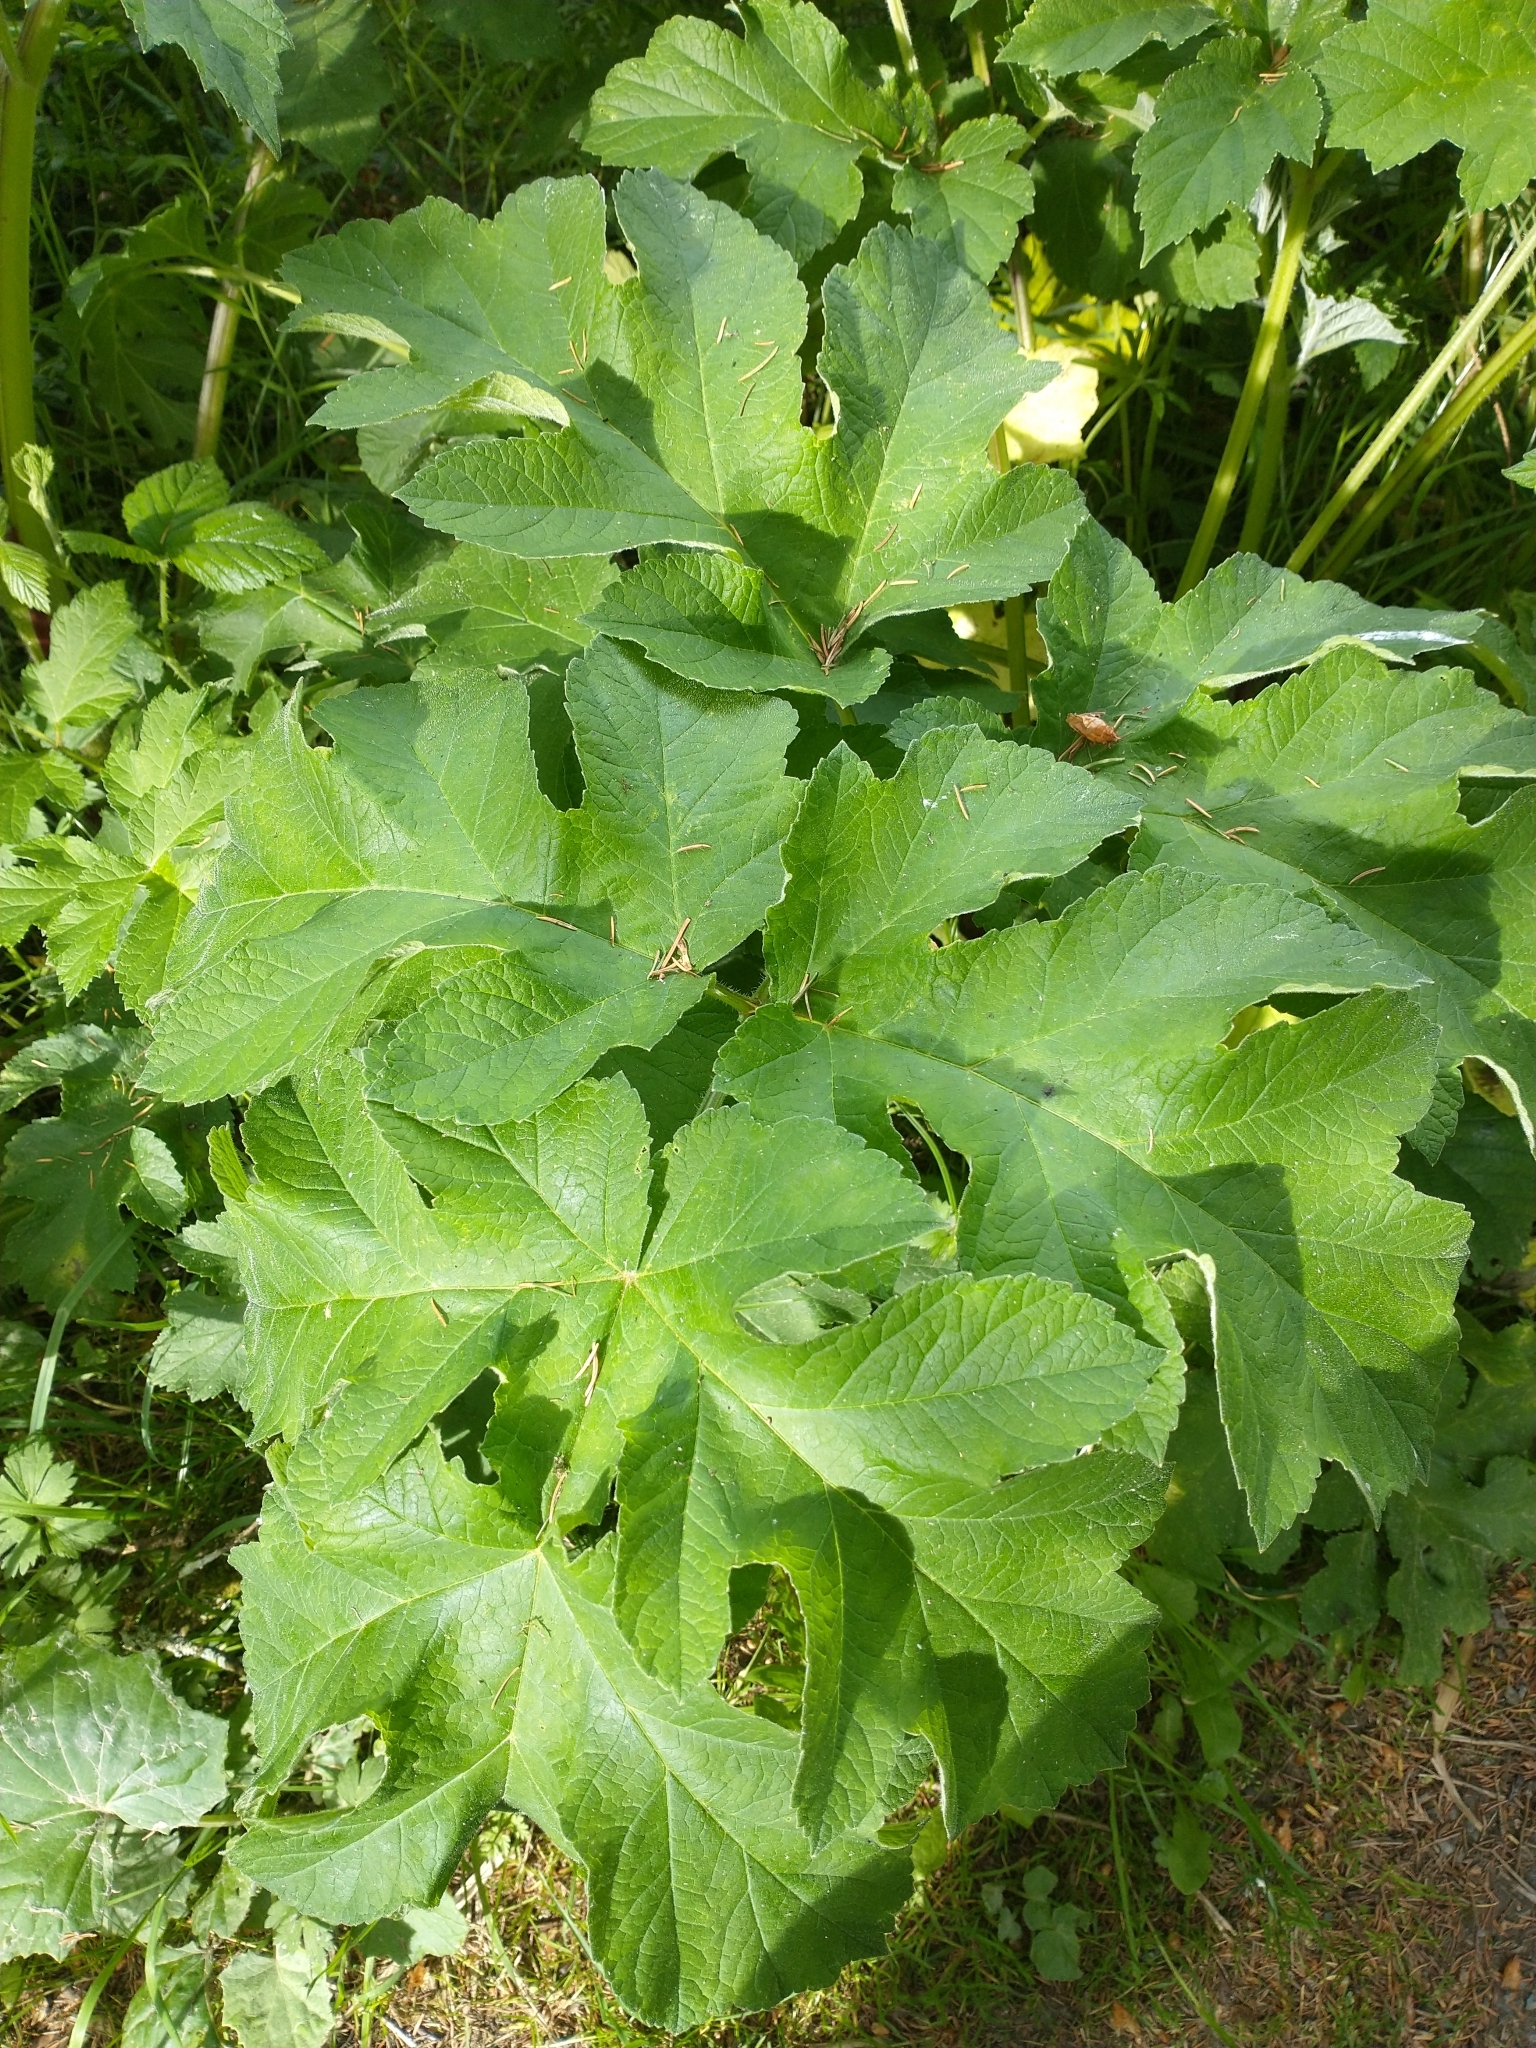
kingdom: Plantae
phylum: Tracheophyta
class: Magnoliopsida
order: Apiales
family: Apiaceae
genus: Heracleum
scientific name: Heracleum sphondylium
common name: Hogweed
